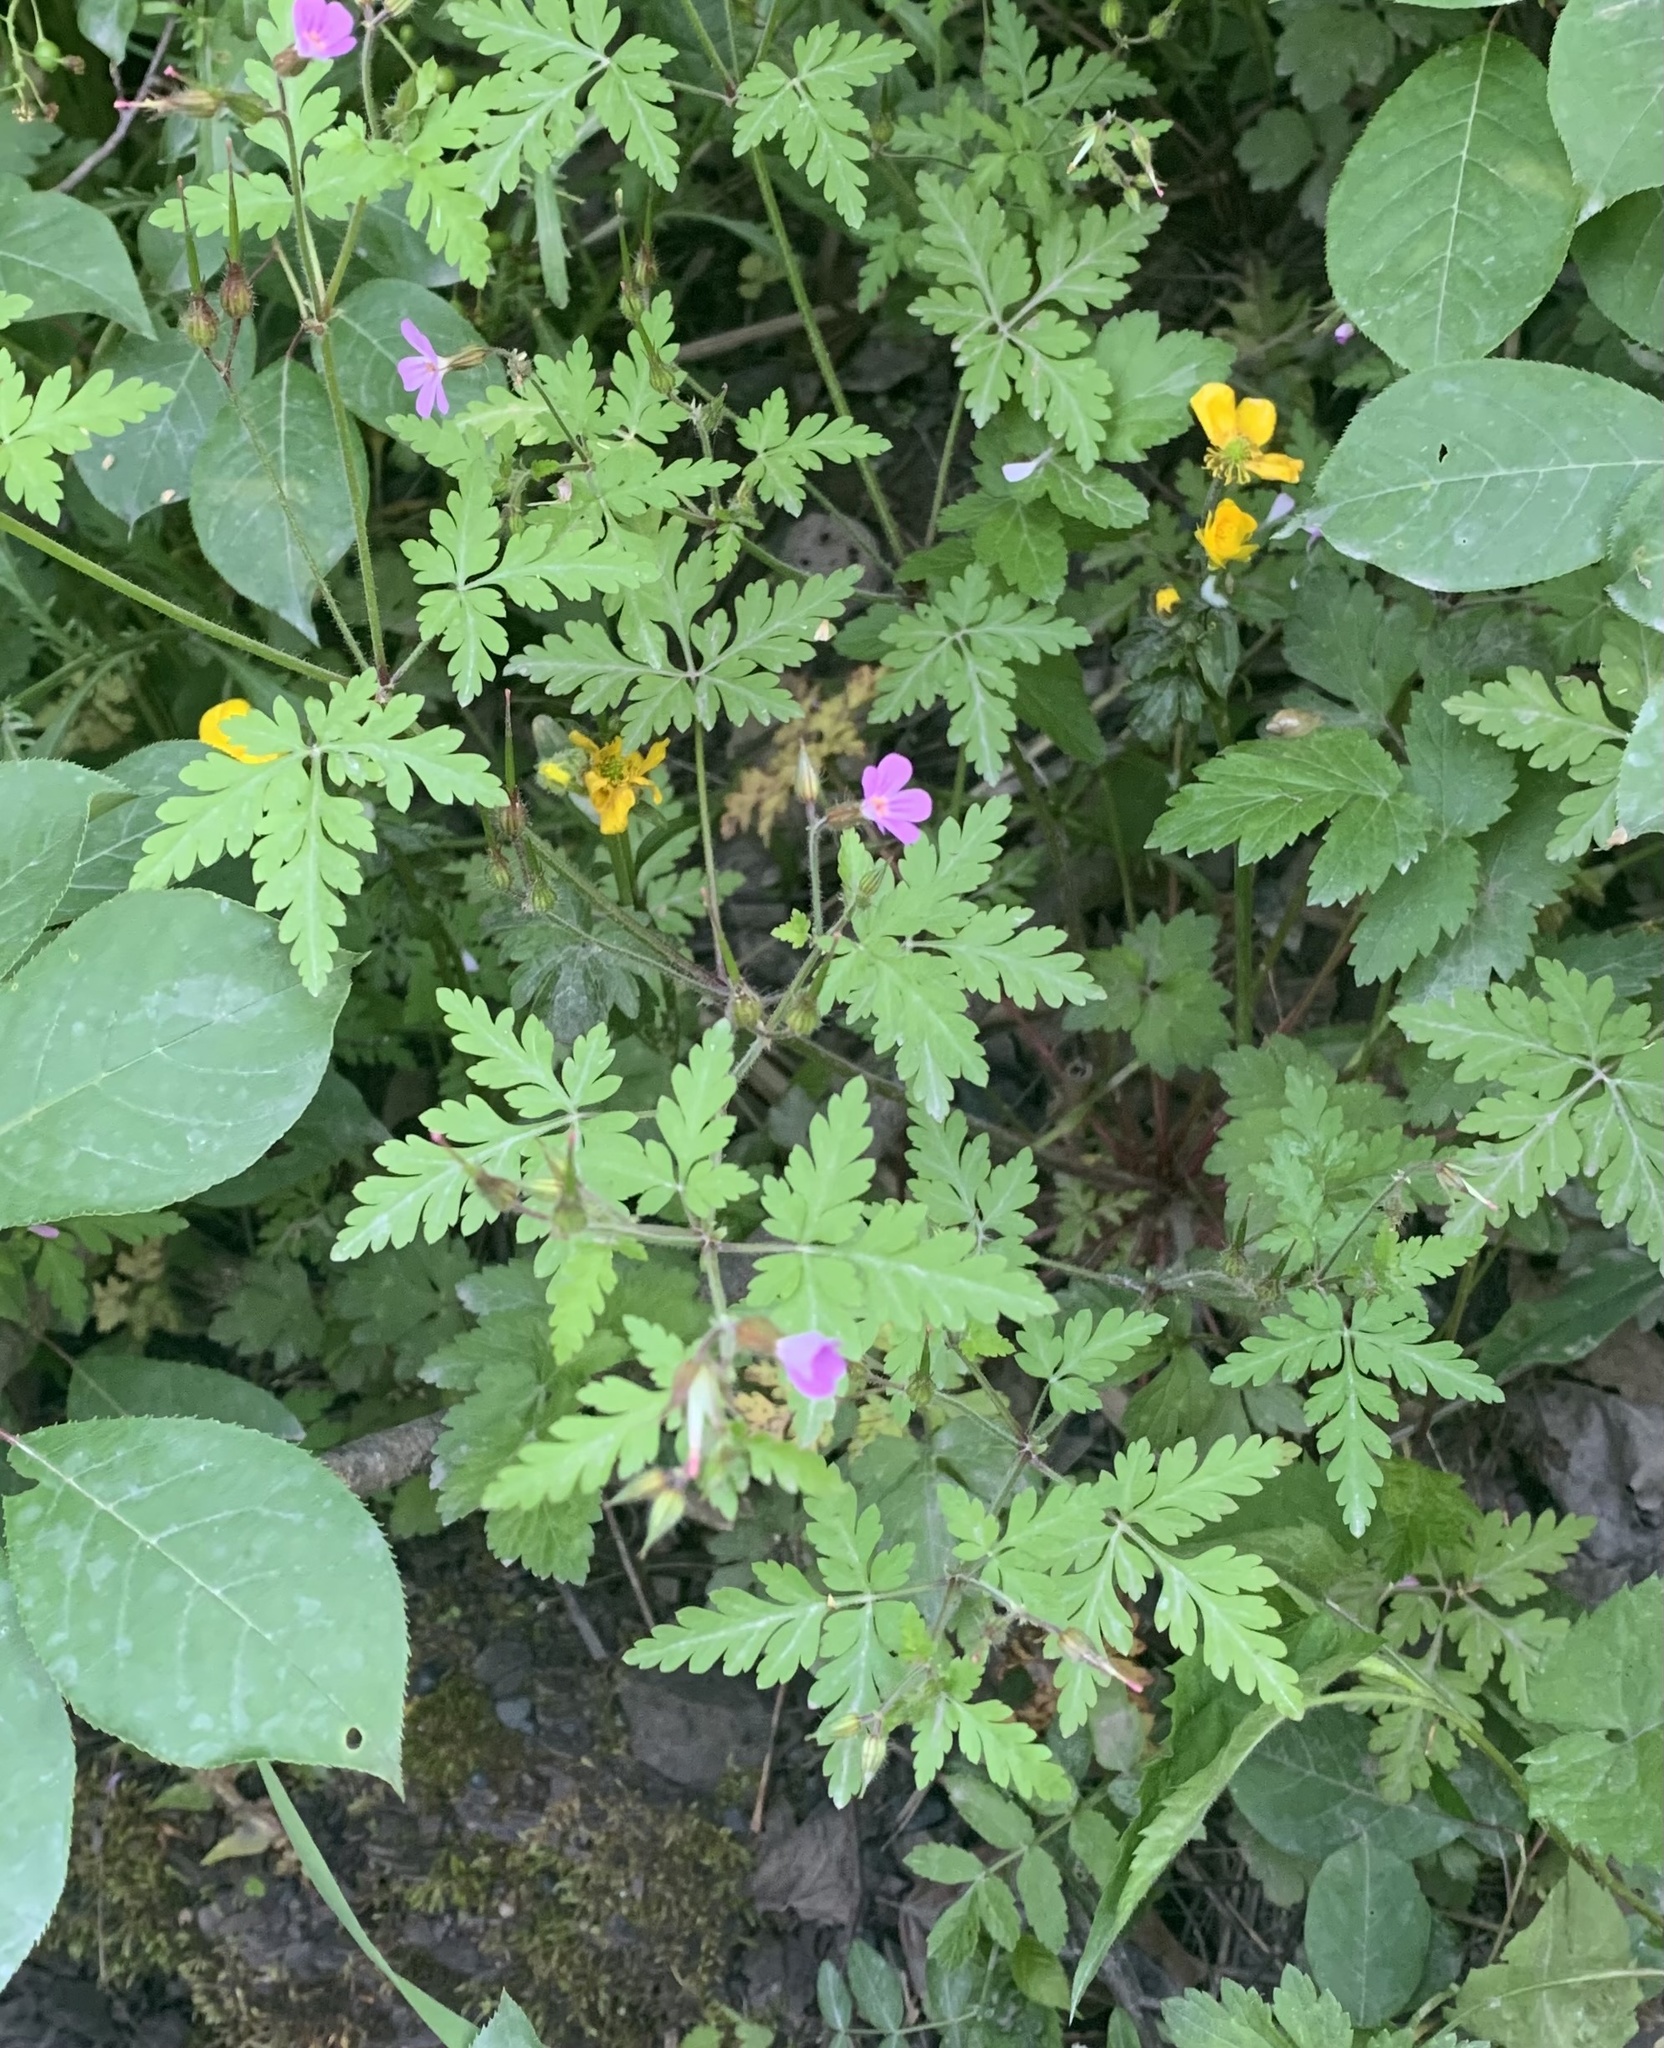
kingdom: Plantae
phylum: Tracheophyta
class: Magnoliopsida
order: Geraniales
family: Geraniaceae
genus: Geranium
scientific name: Geranium robertianum
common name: Herb-robert
